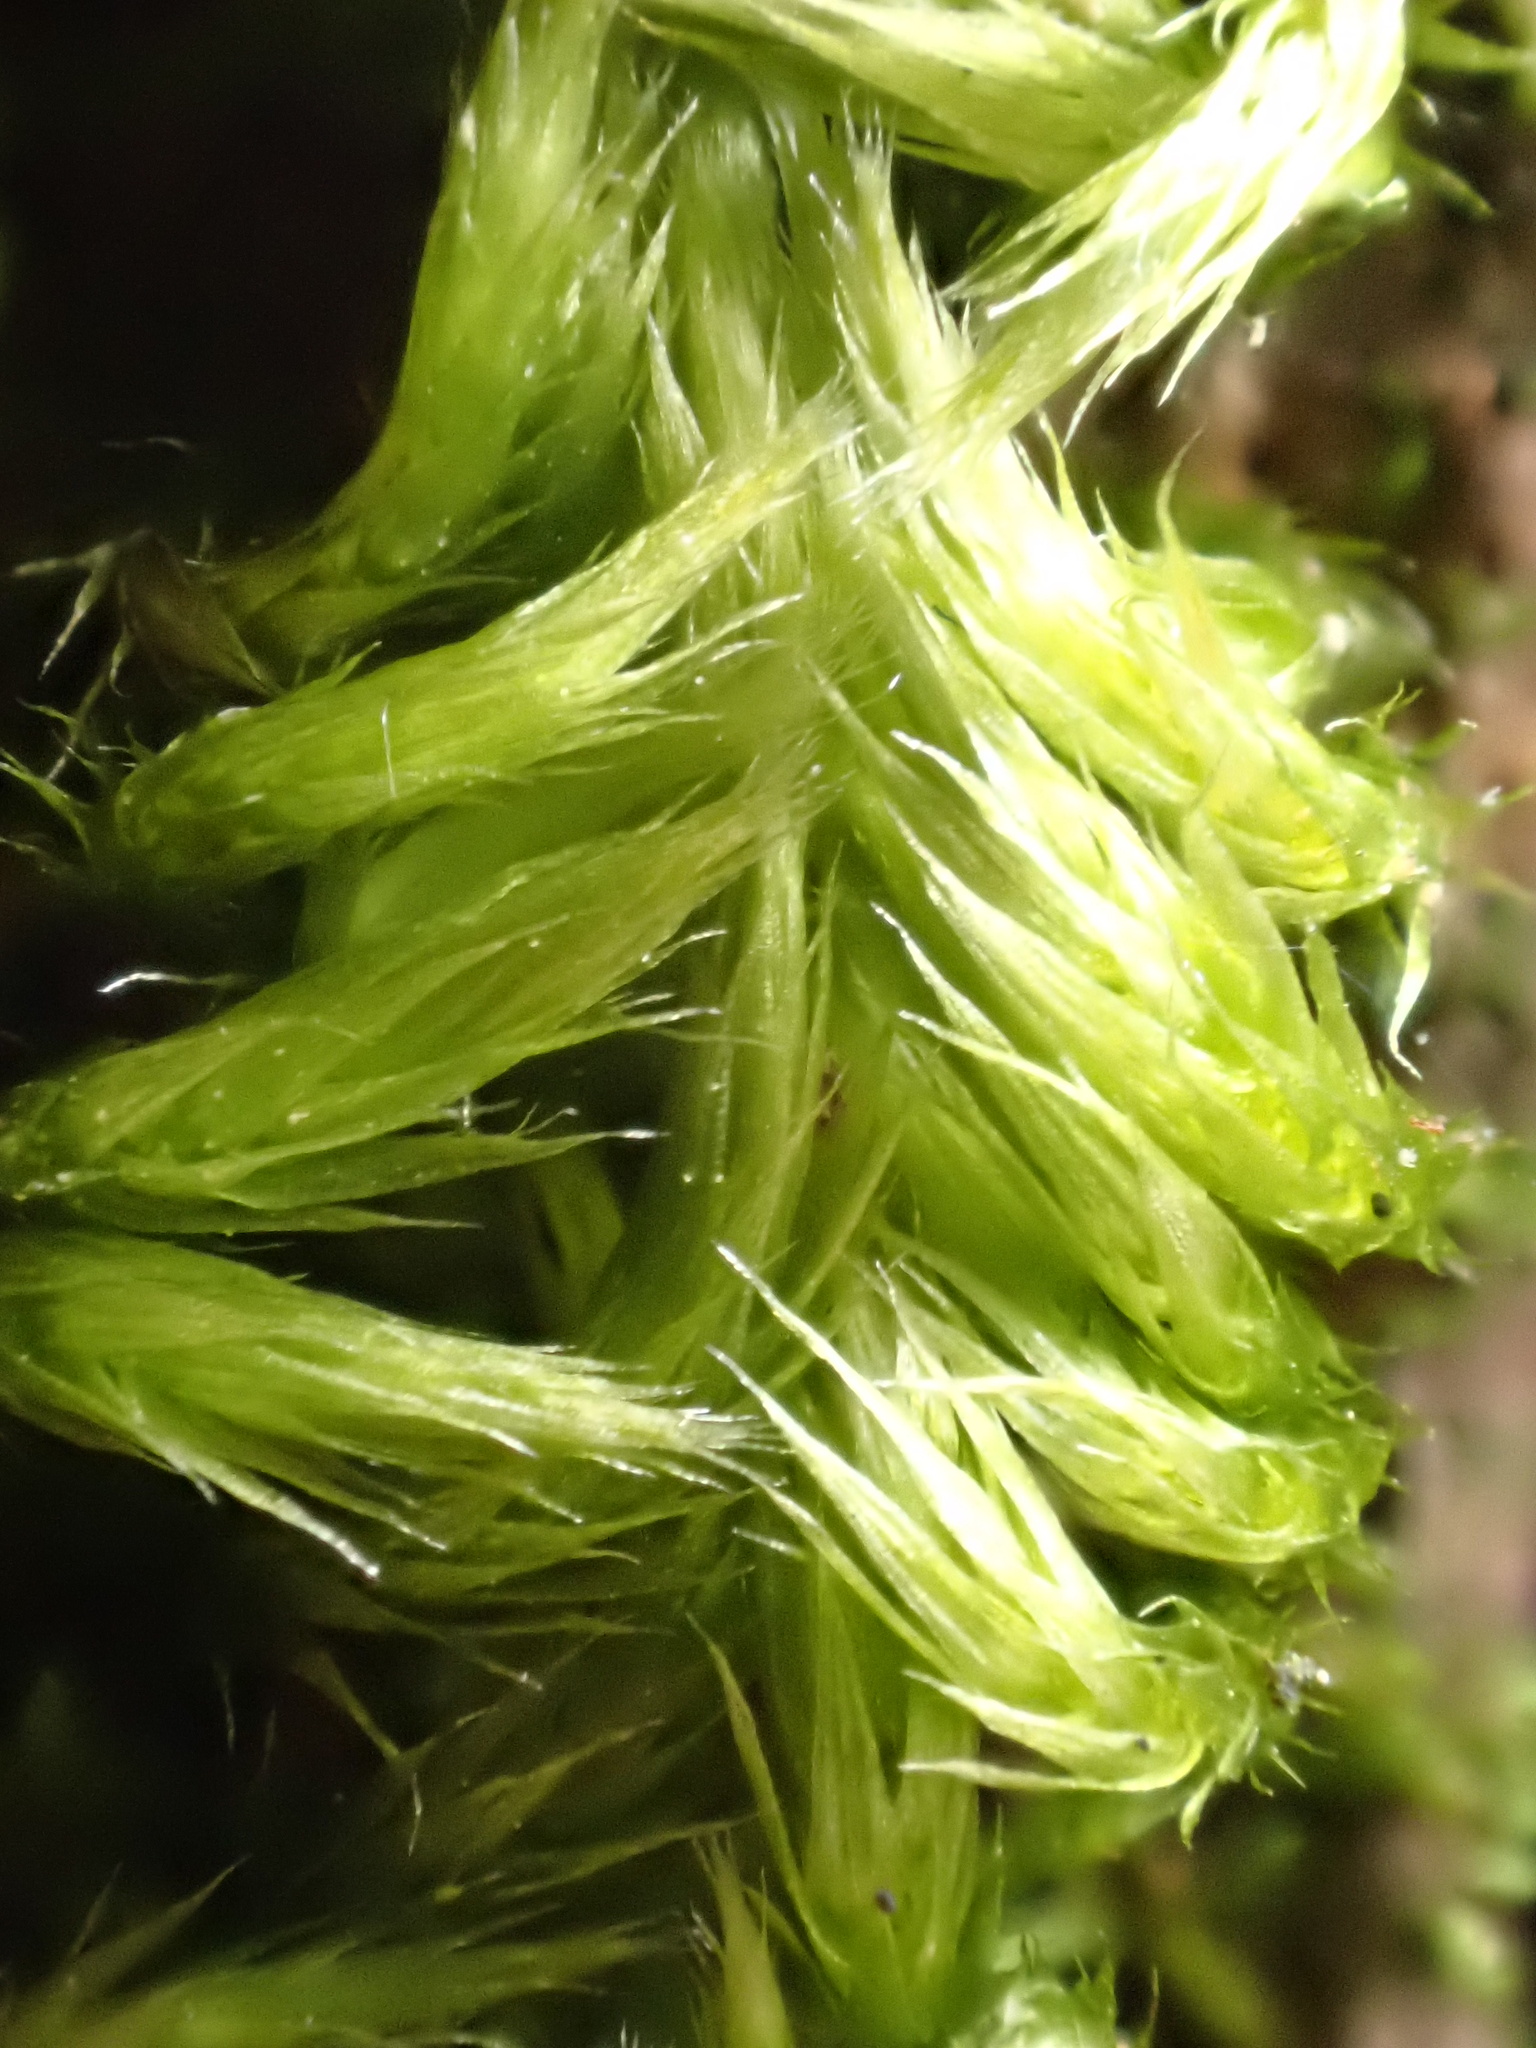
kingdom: Plantae
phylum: Bryophyta
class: Bryopsida
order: Hypnales
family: Brachytheciaceae
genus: Homalothecium
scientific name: Homalothecium sericeum
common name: Silky wall feather-moss
